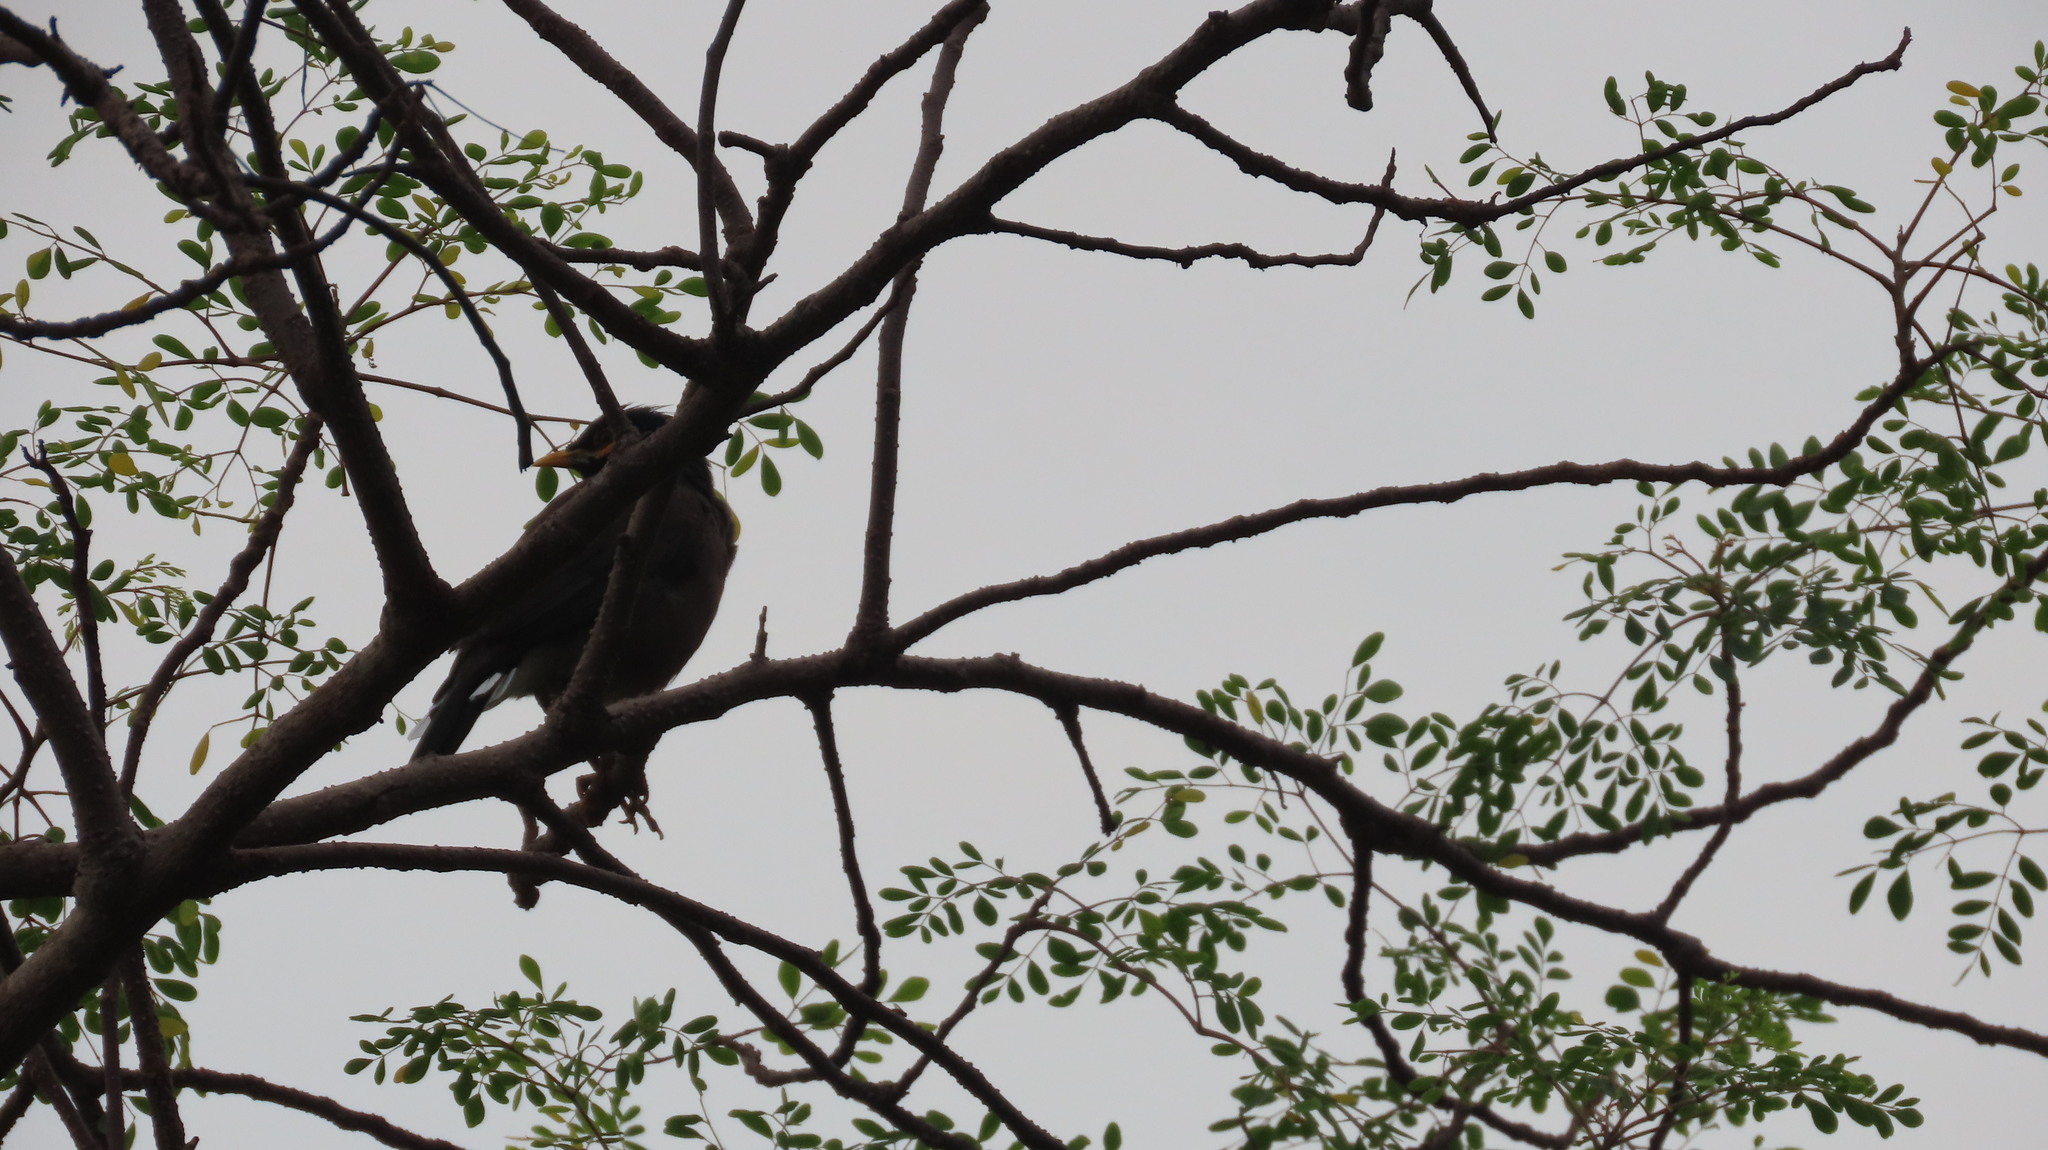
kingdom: Animalia
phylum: Chordata
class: Aves
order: Passeriformes
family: Sturnidae
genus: Acridotheres
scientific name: Acridotheres tristis
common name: Common myna
